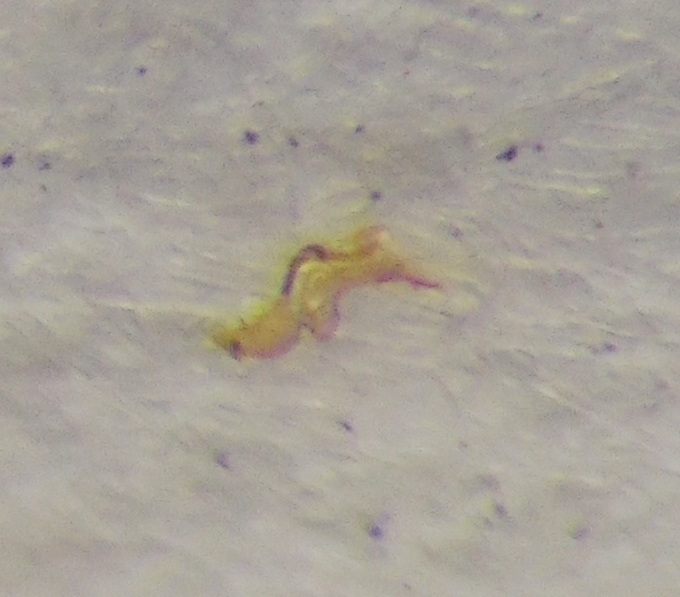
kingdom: Animalia
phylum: Arthropoda
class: Insecta
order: Hemiptera
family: Rhyparochromidae
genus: Stygnocoris
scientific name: Stygnocoris sabulosus
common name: Hairy groundbug
